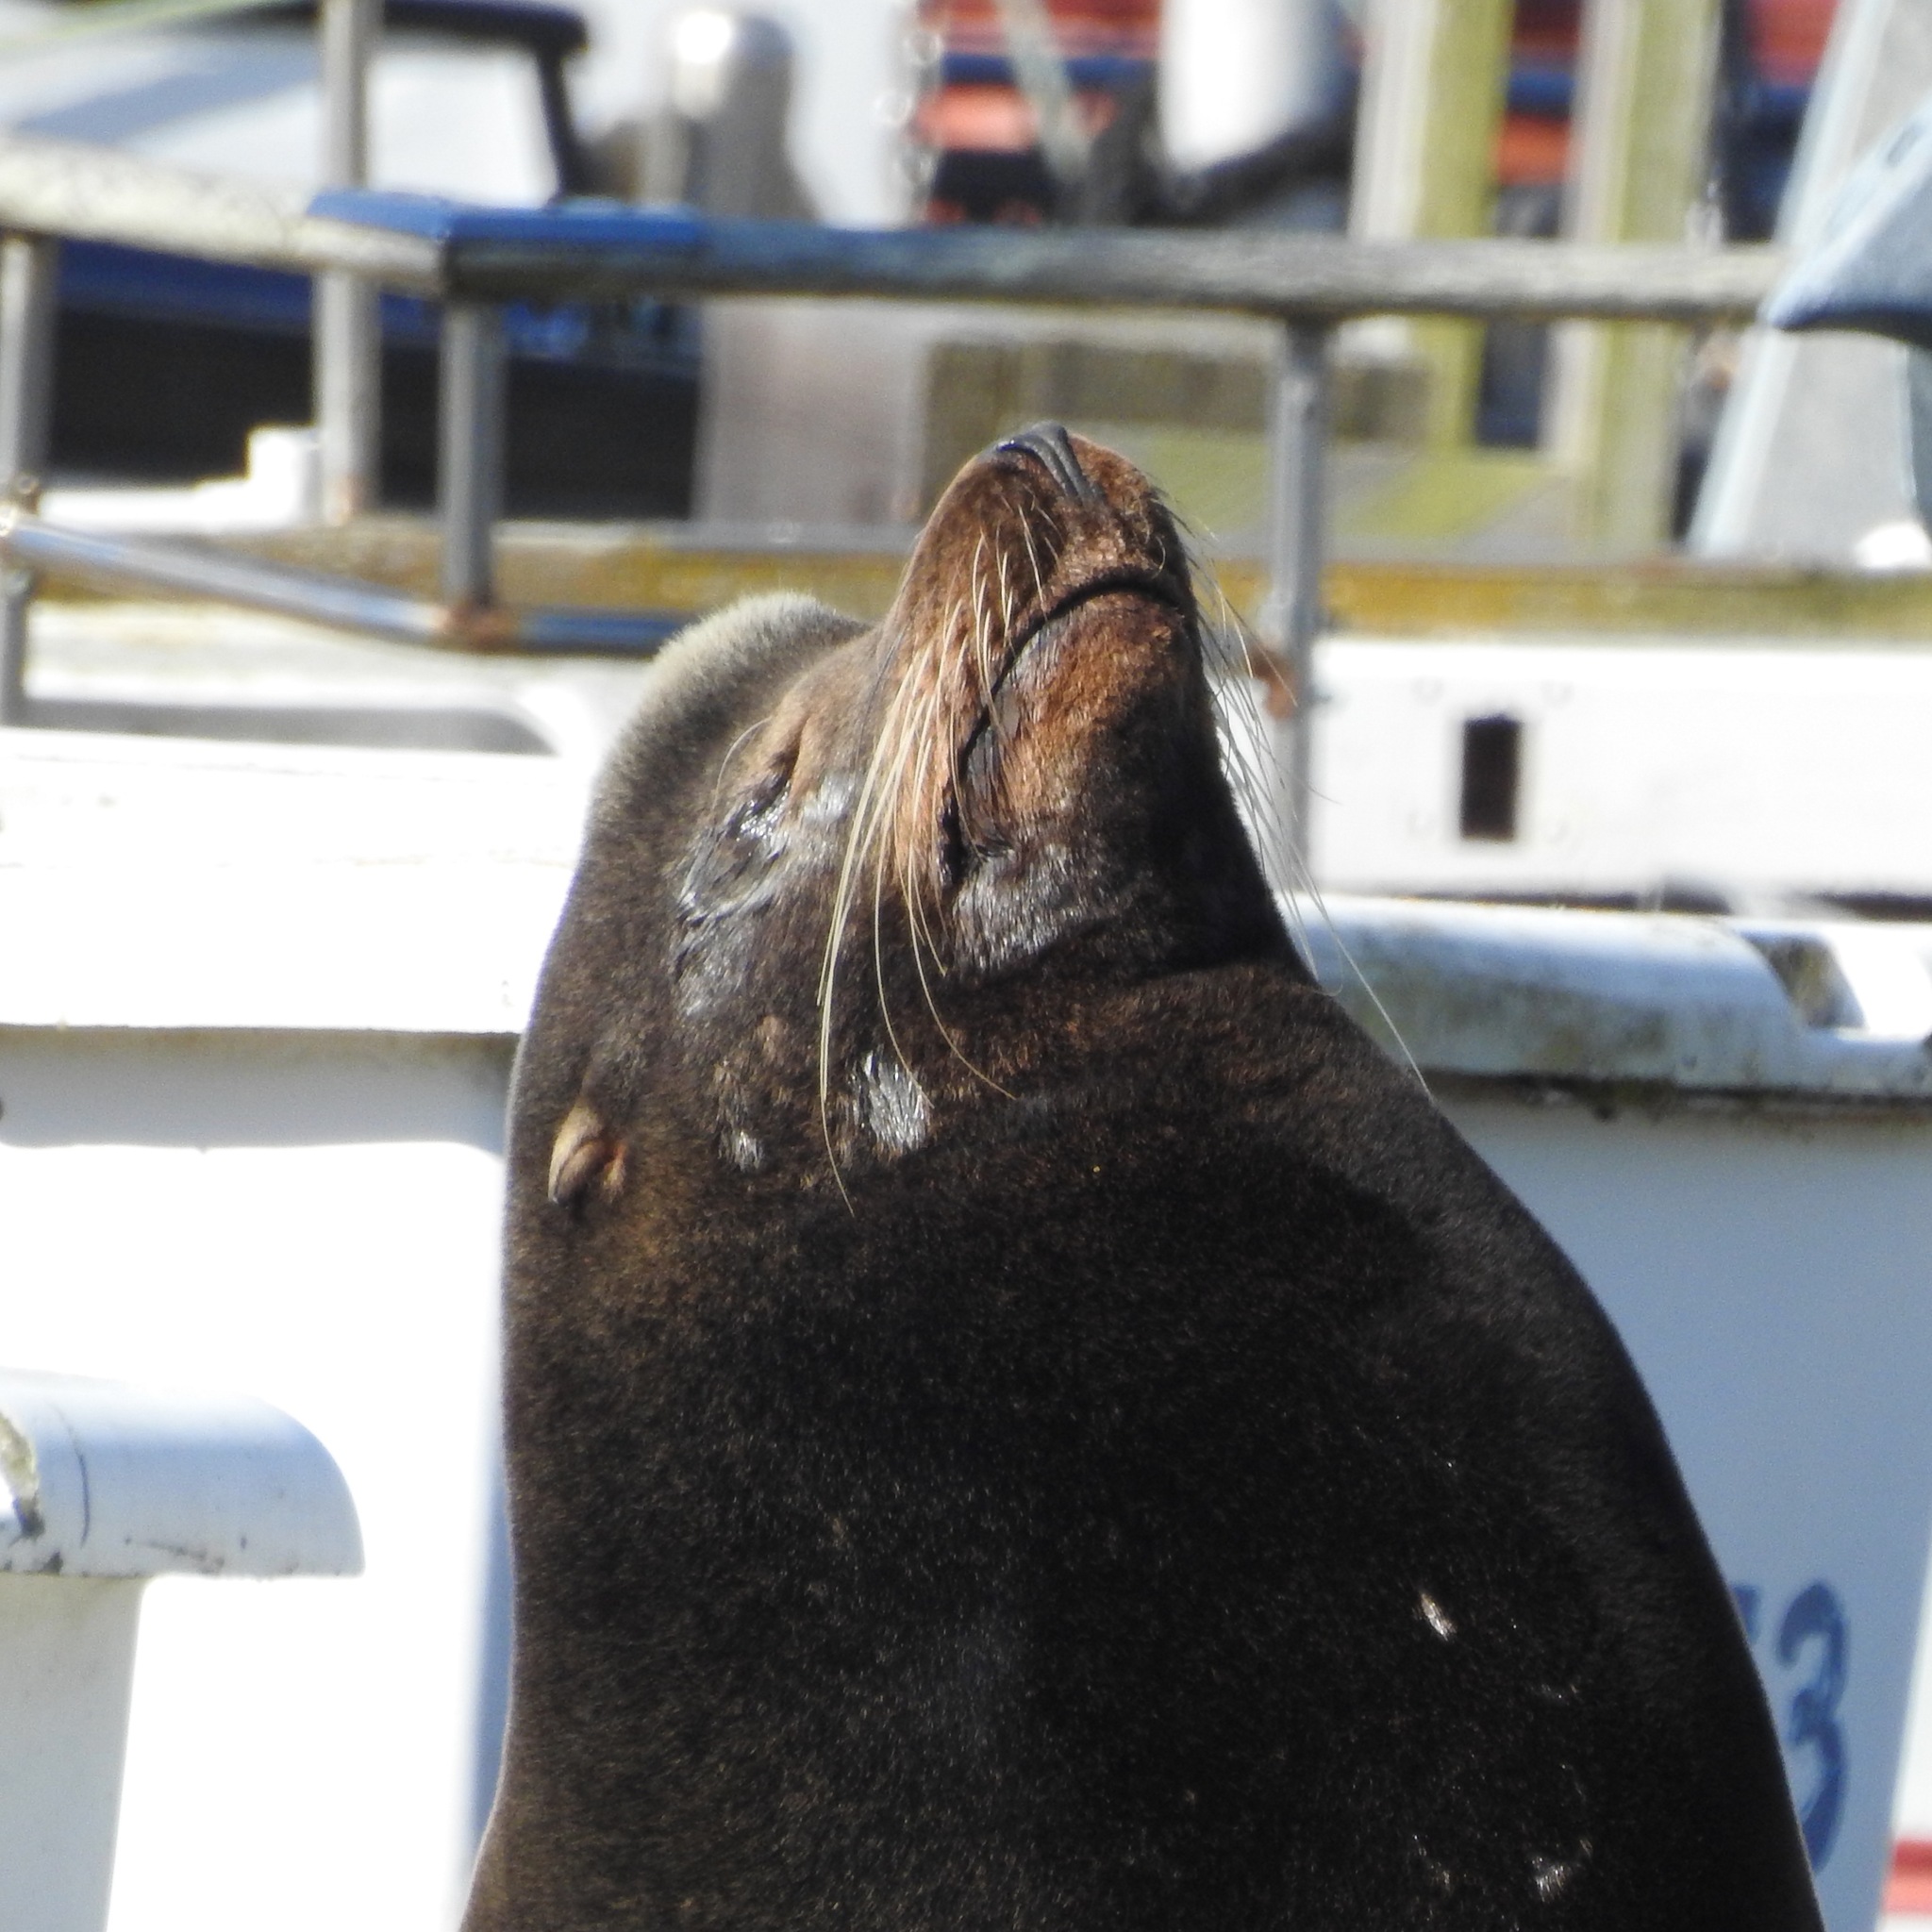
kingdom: Animalia
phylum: Chordata
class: Mammalia
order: Carnivora
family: Otariidae
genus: Zalophus
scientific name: Zalophus californianus
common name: California sea lion
